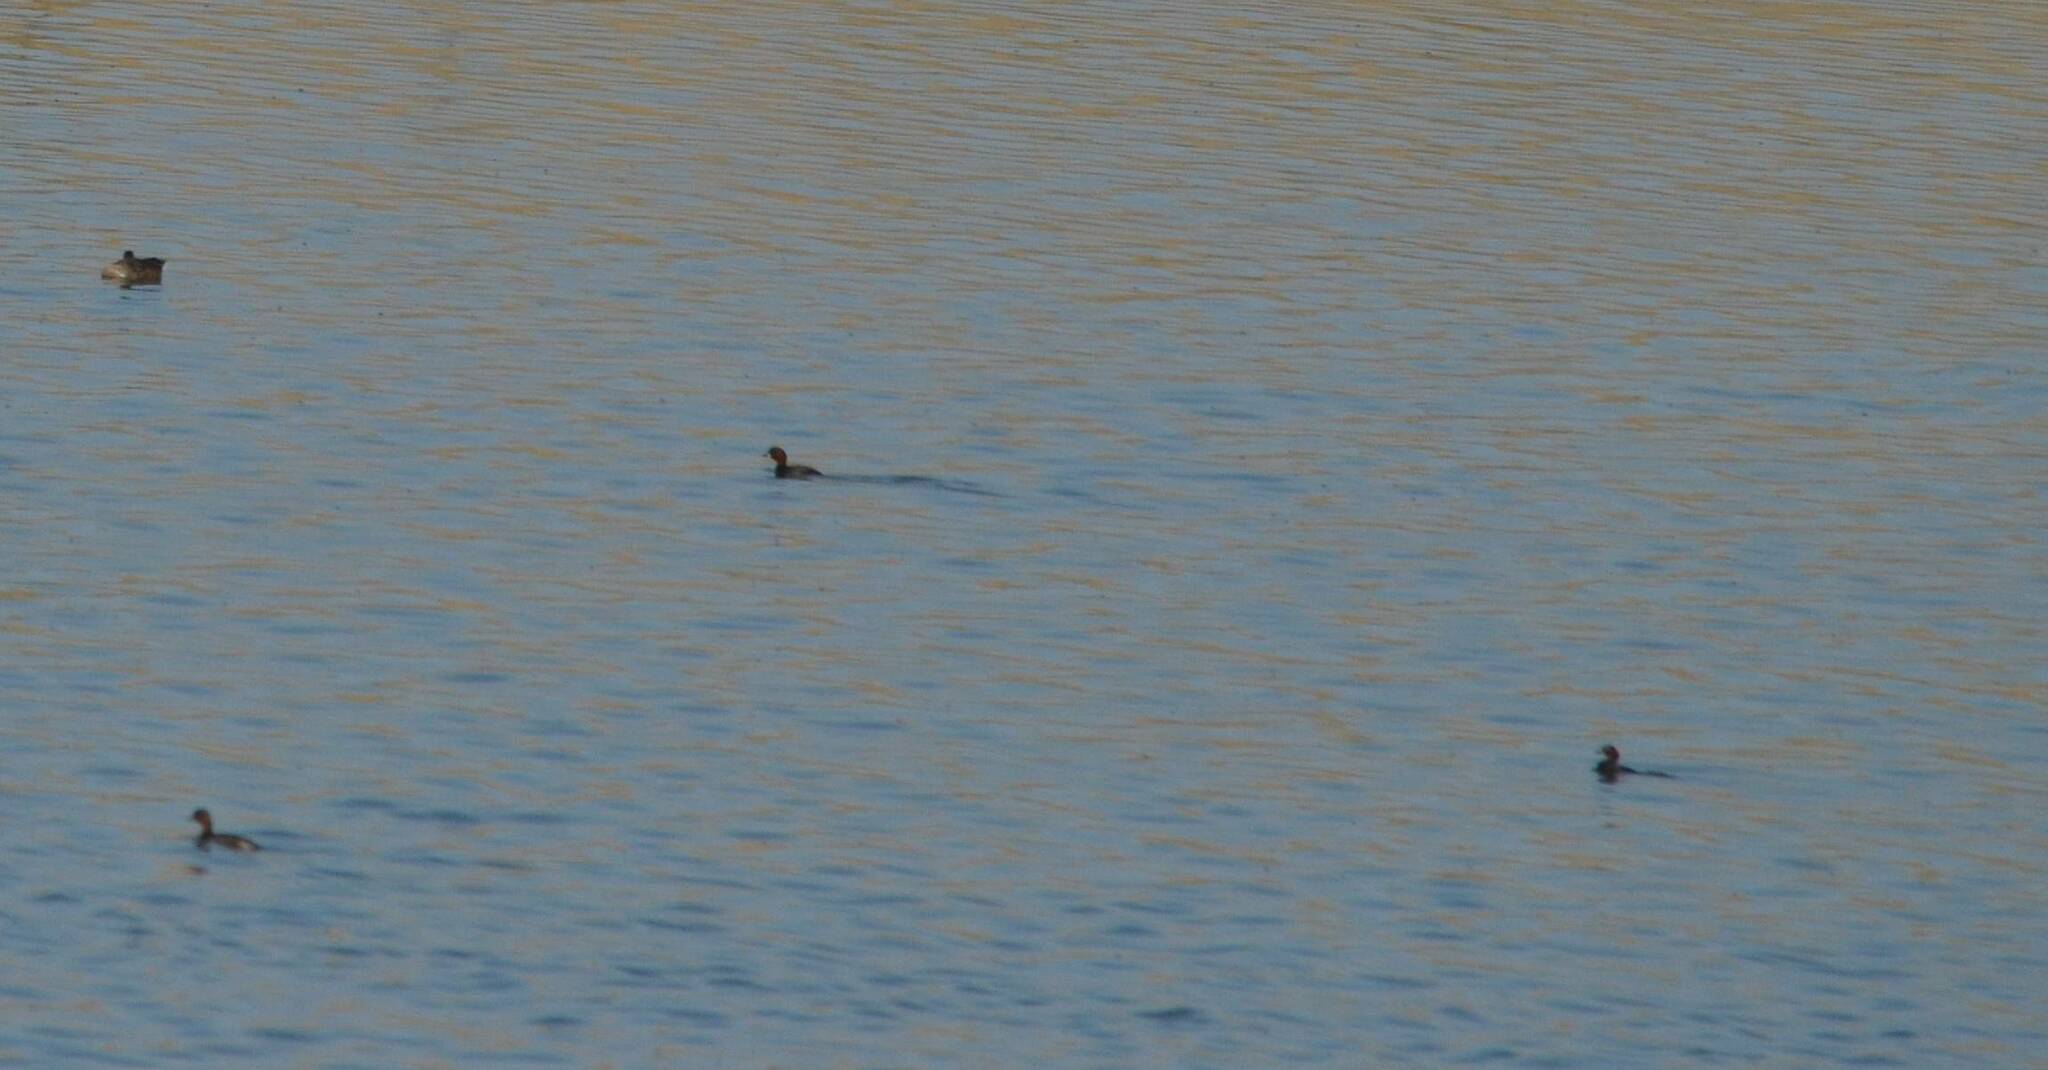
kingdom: Animalia
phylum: Chordata
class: Aves
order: Gruiformes
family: Rallidae
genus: Fulica
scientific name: Fulica atra
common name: Eurasian coot
